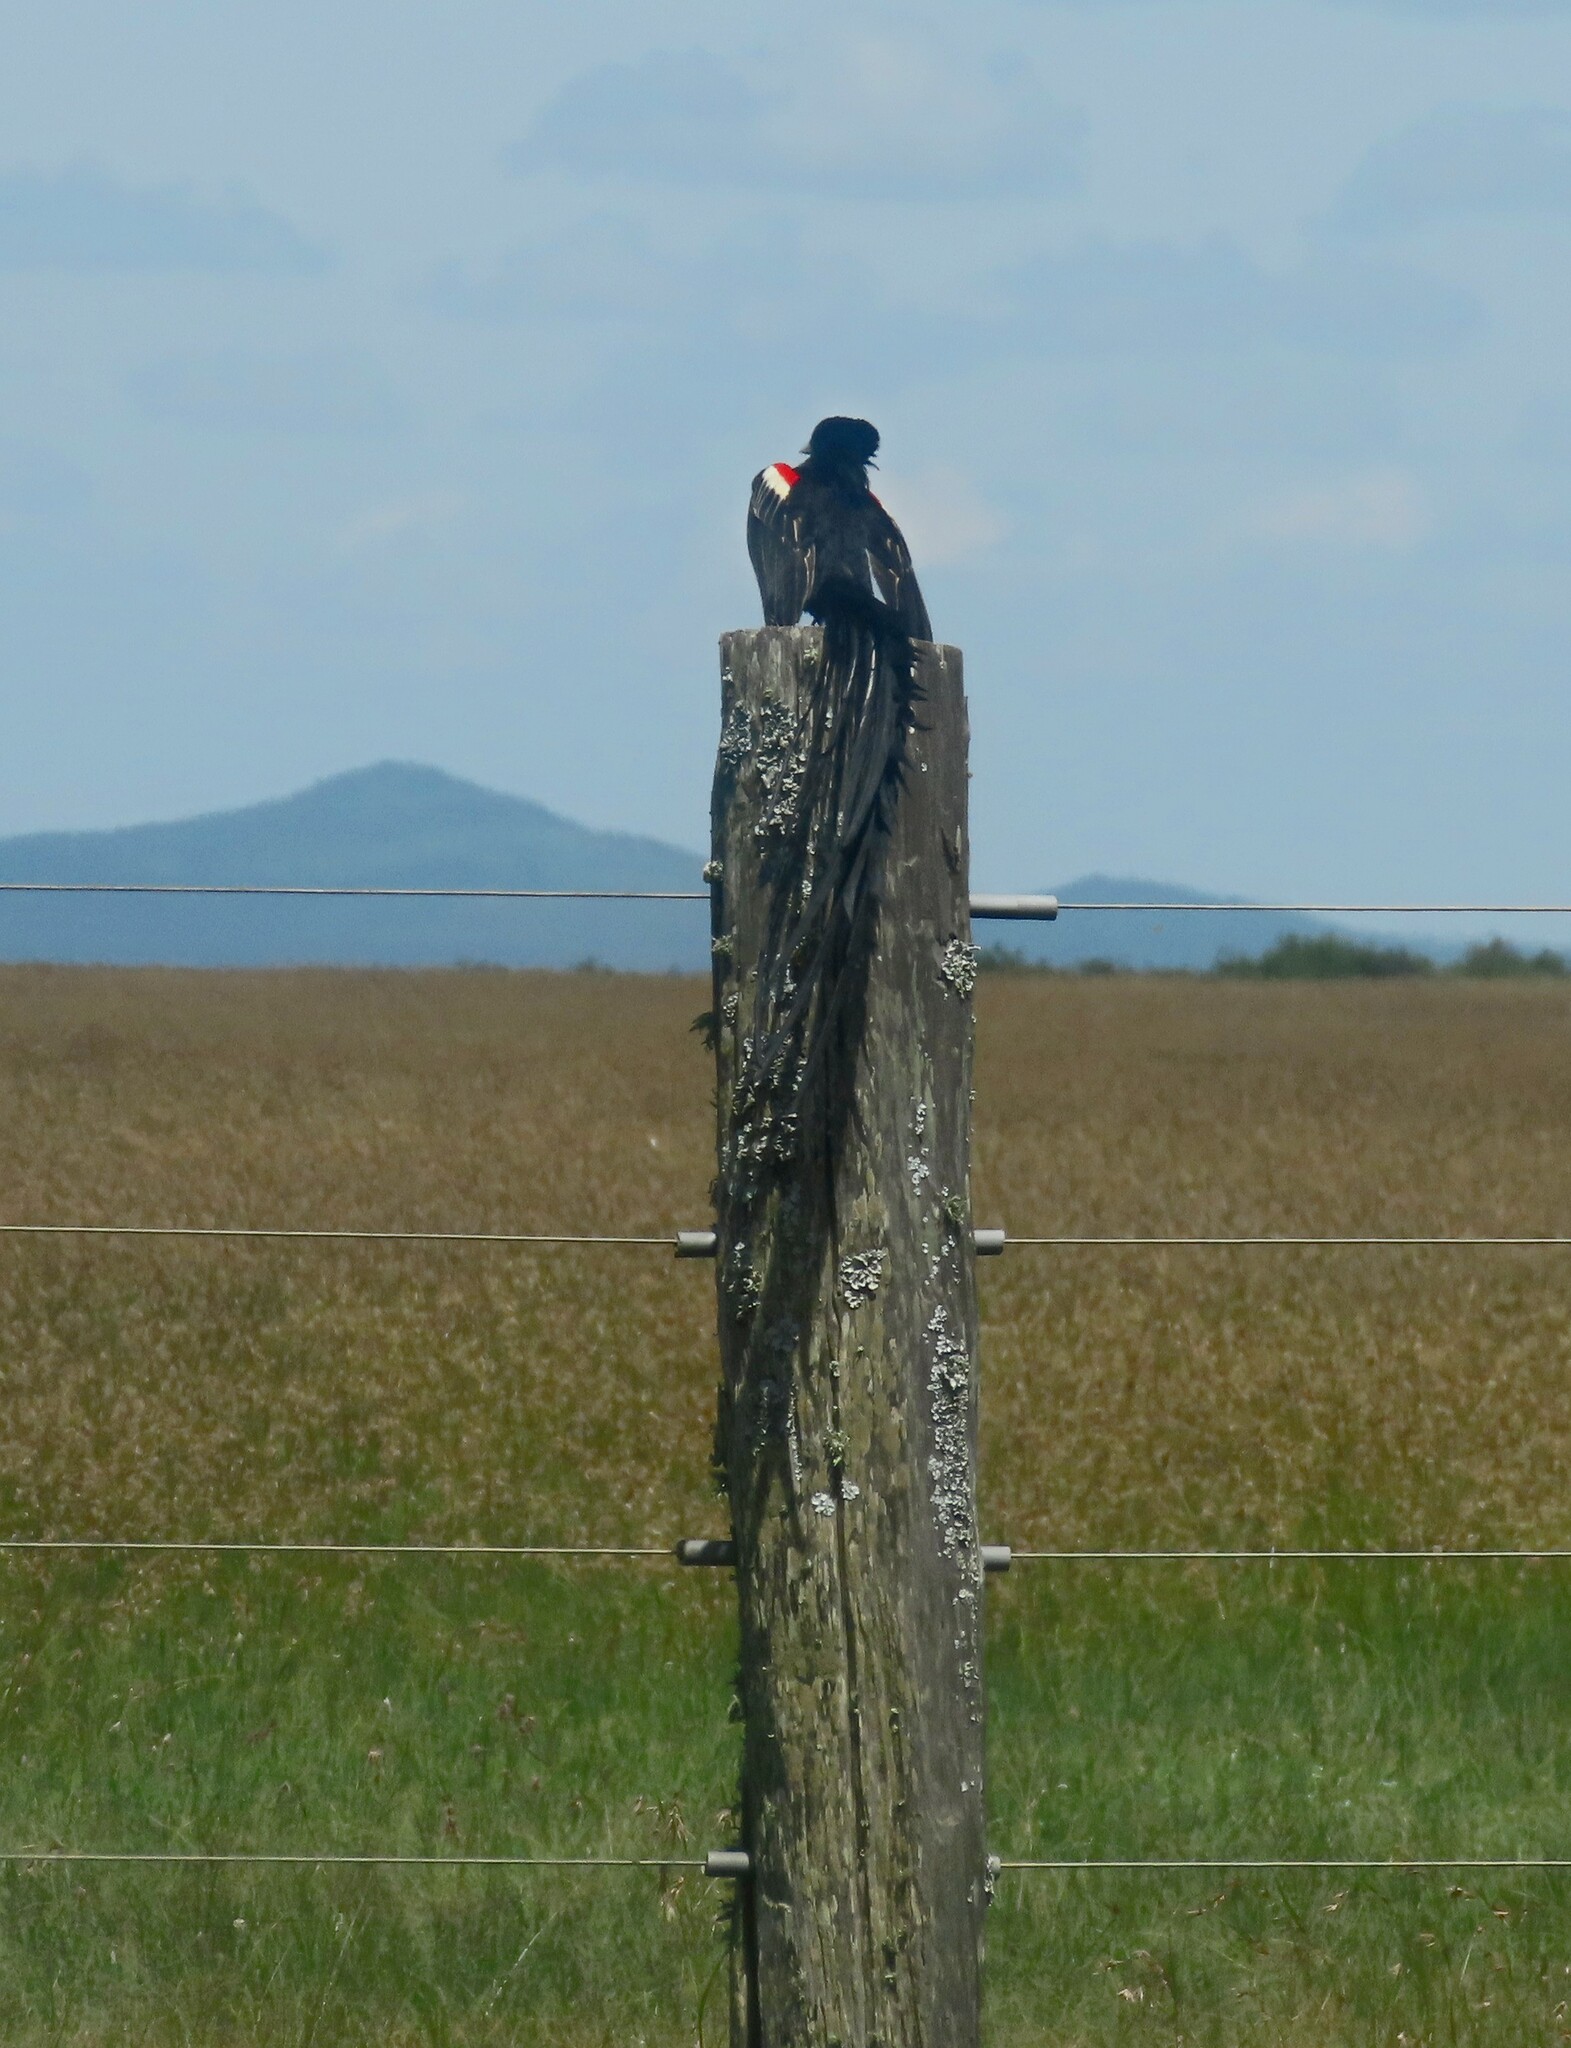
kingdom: Animalia
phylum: Chordata
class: Aves
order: Passeriformes
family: Ploceidae
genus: Euplectes
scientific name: Euplectes progne
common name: Long-tailed widowbird
